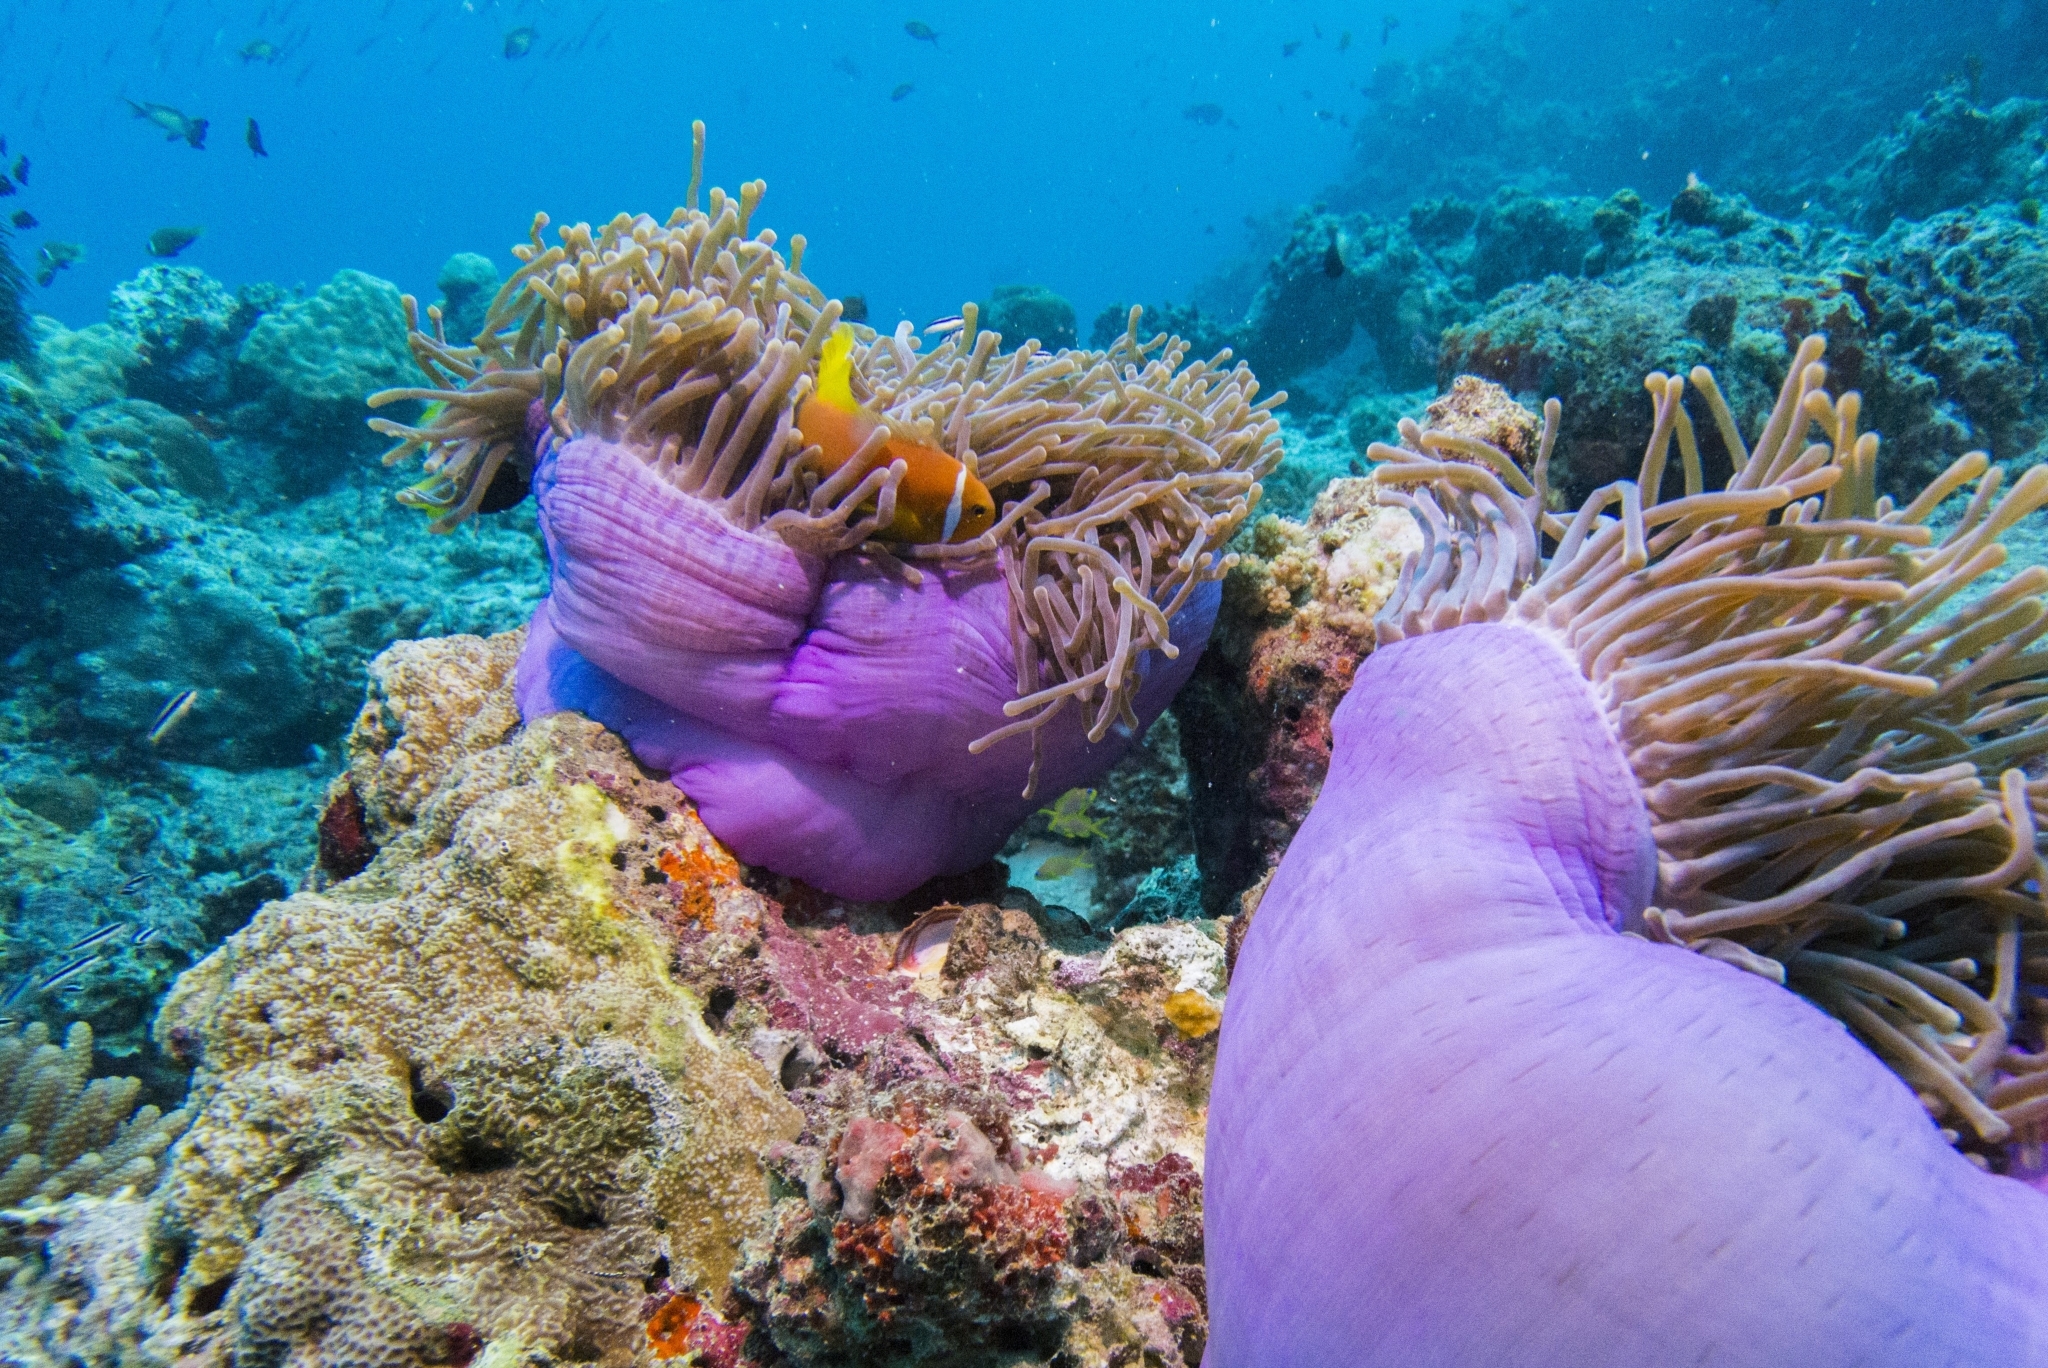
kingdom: Animalia
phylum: Cnidaria
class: Anthozoa
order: Actiniaria
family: Stichodactylidae
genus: Radianthus
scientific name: Radianthus magnifica
